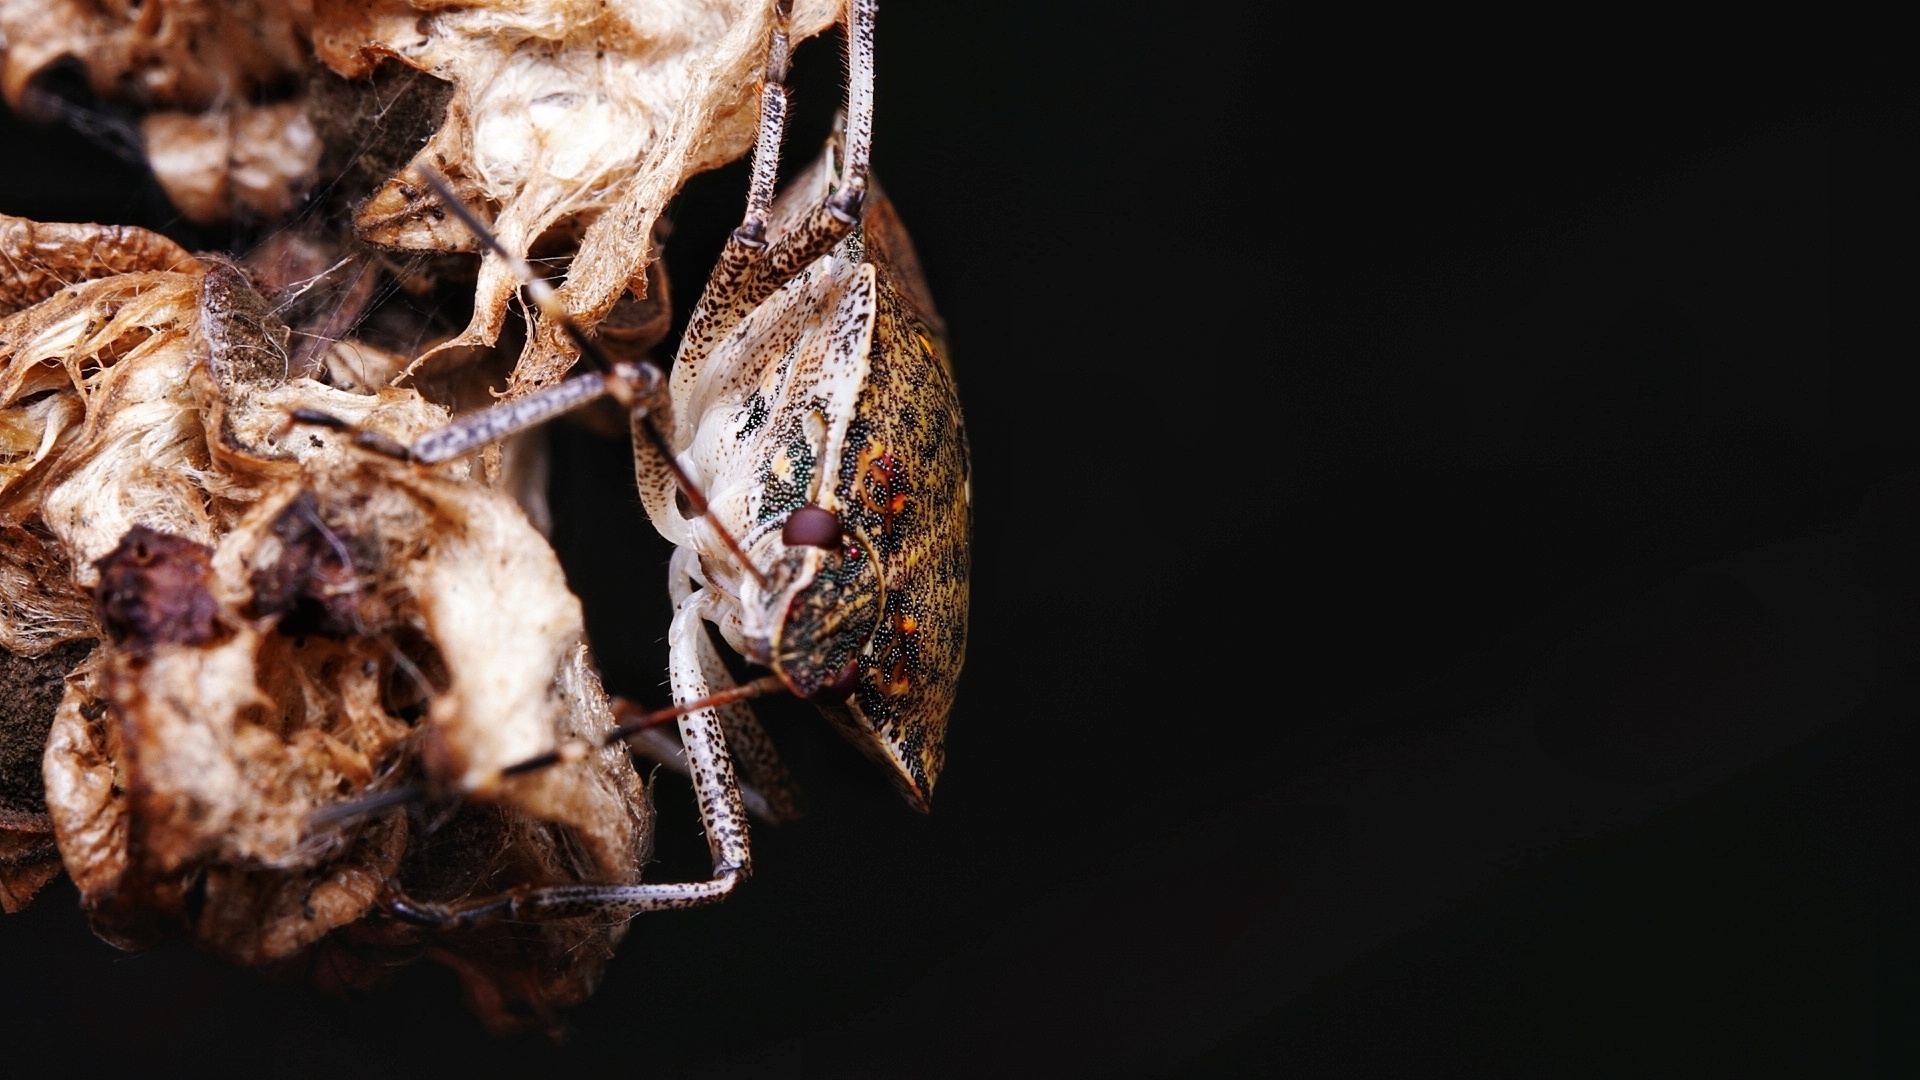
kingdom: Animalia
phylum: Arthropoda
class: Insecta
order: Hemiptera
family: Pentatomidae
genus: Halyomorpha
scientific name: Halyomorpha halys
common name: Brown marmorated stink bug
